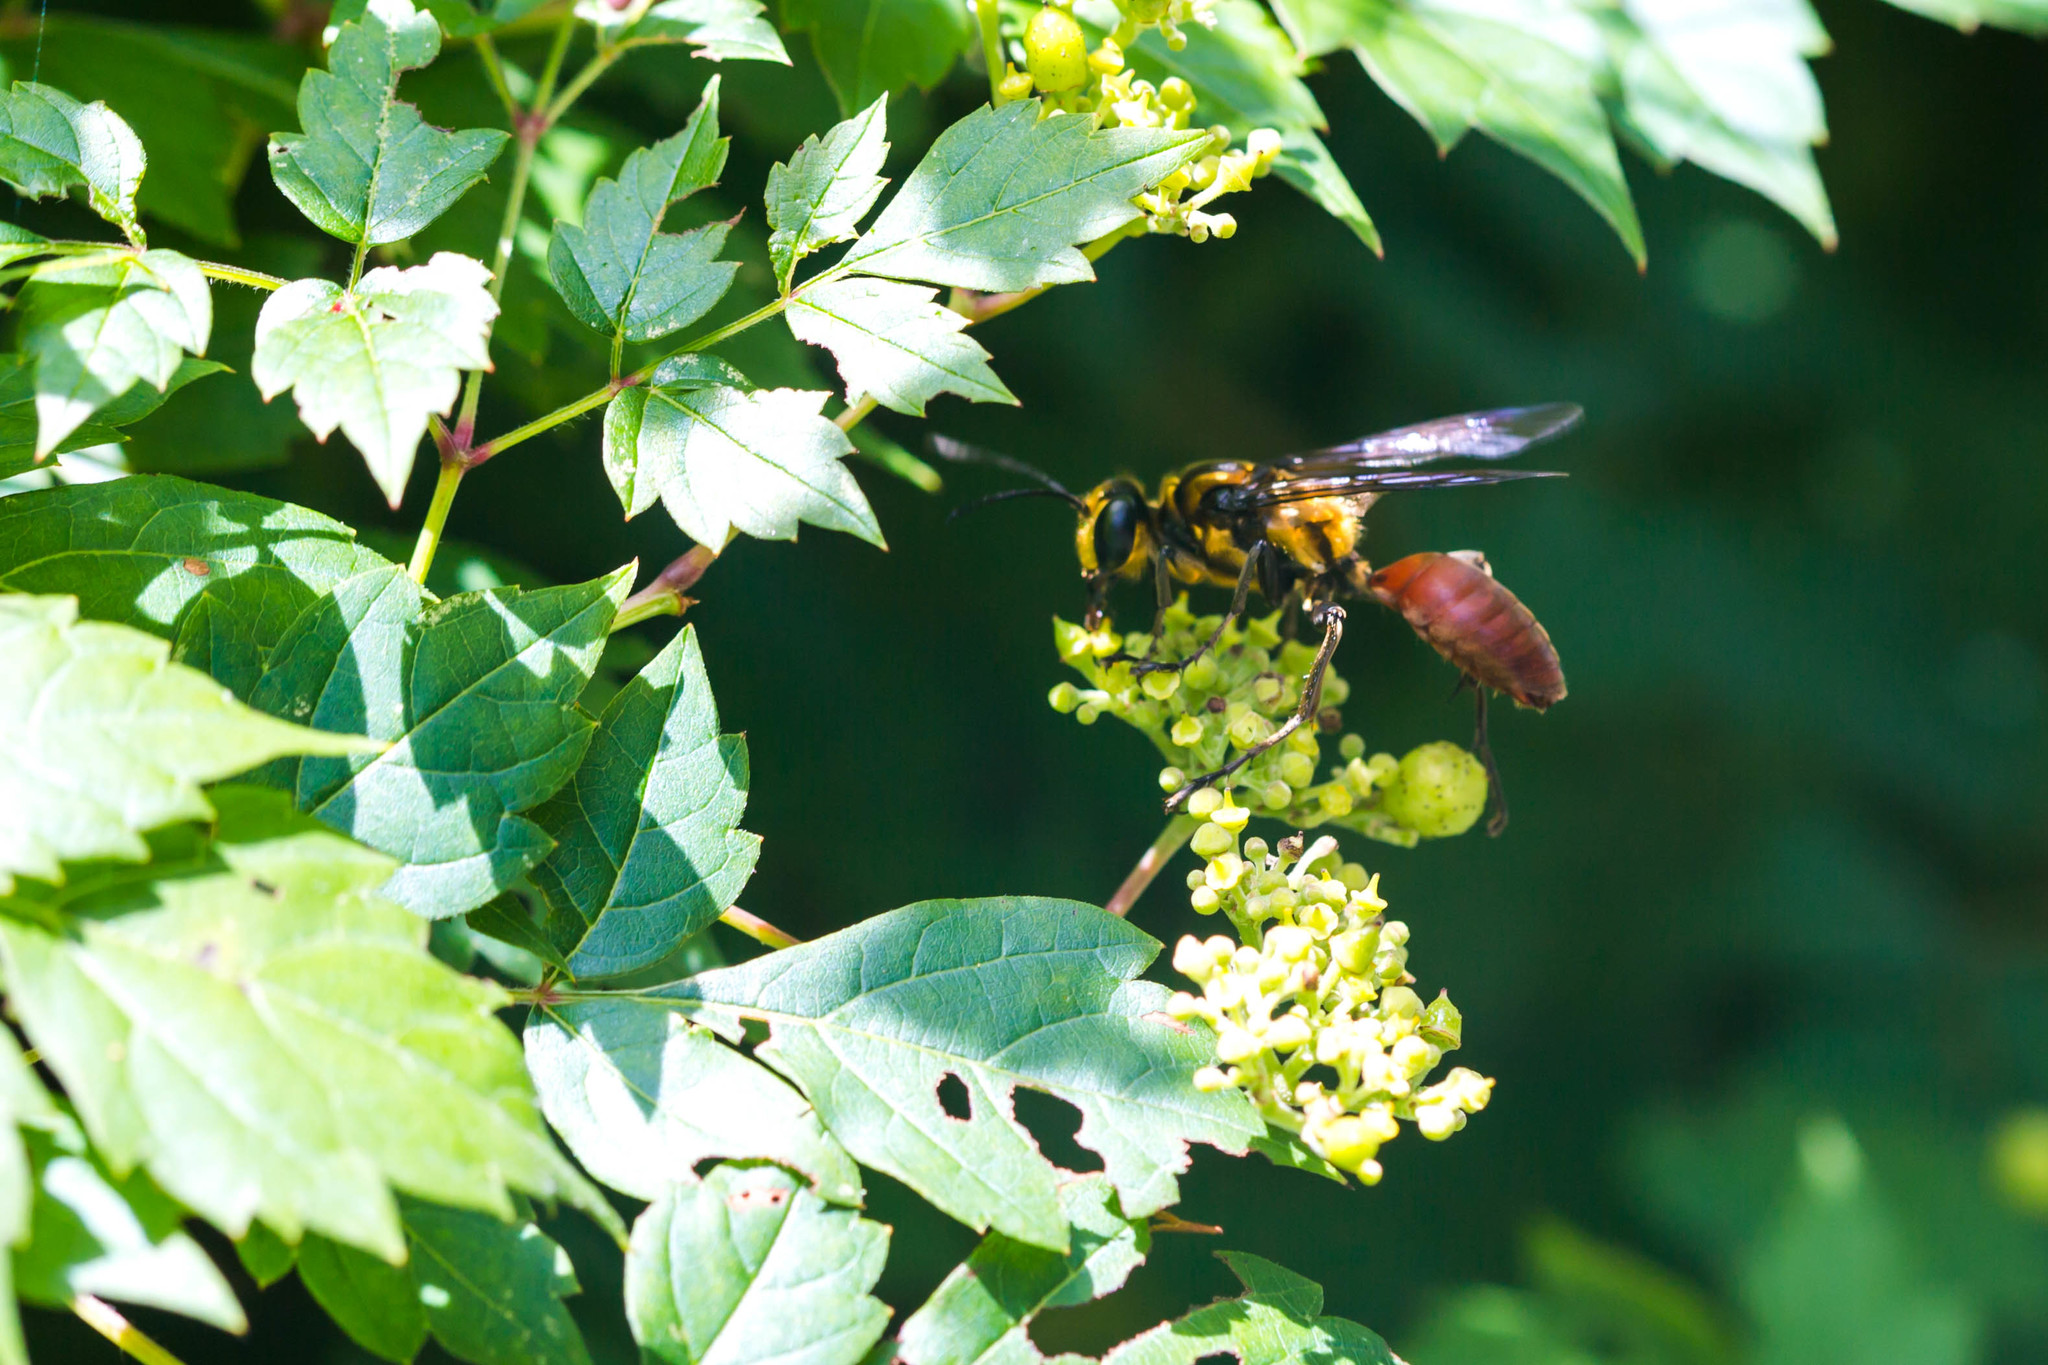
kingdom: Animalia
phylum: Arthropoda
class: Insecta
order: Hymenoptera
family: Sphecidae
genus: Sphex
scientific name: Sphex habenus
